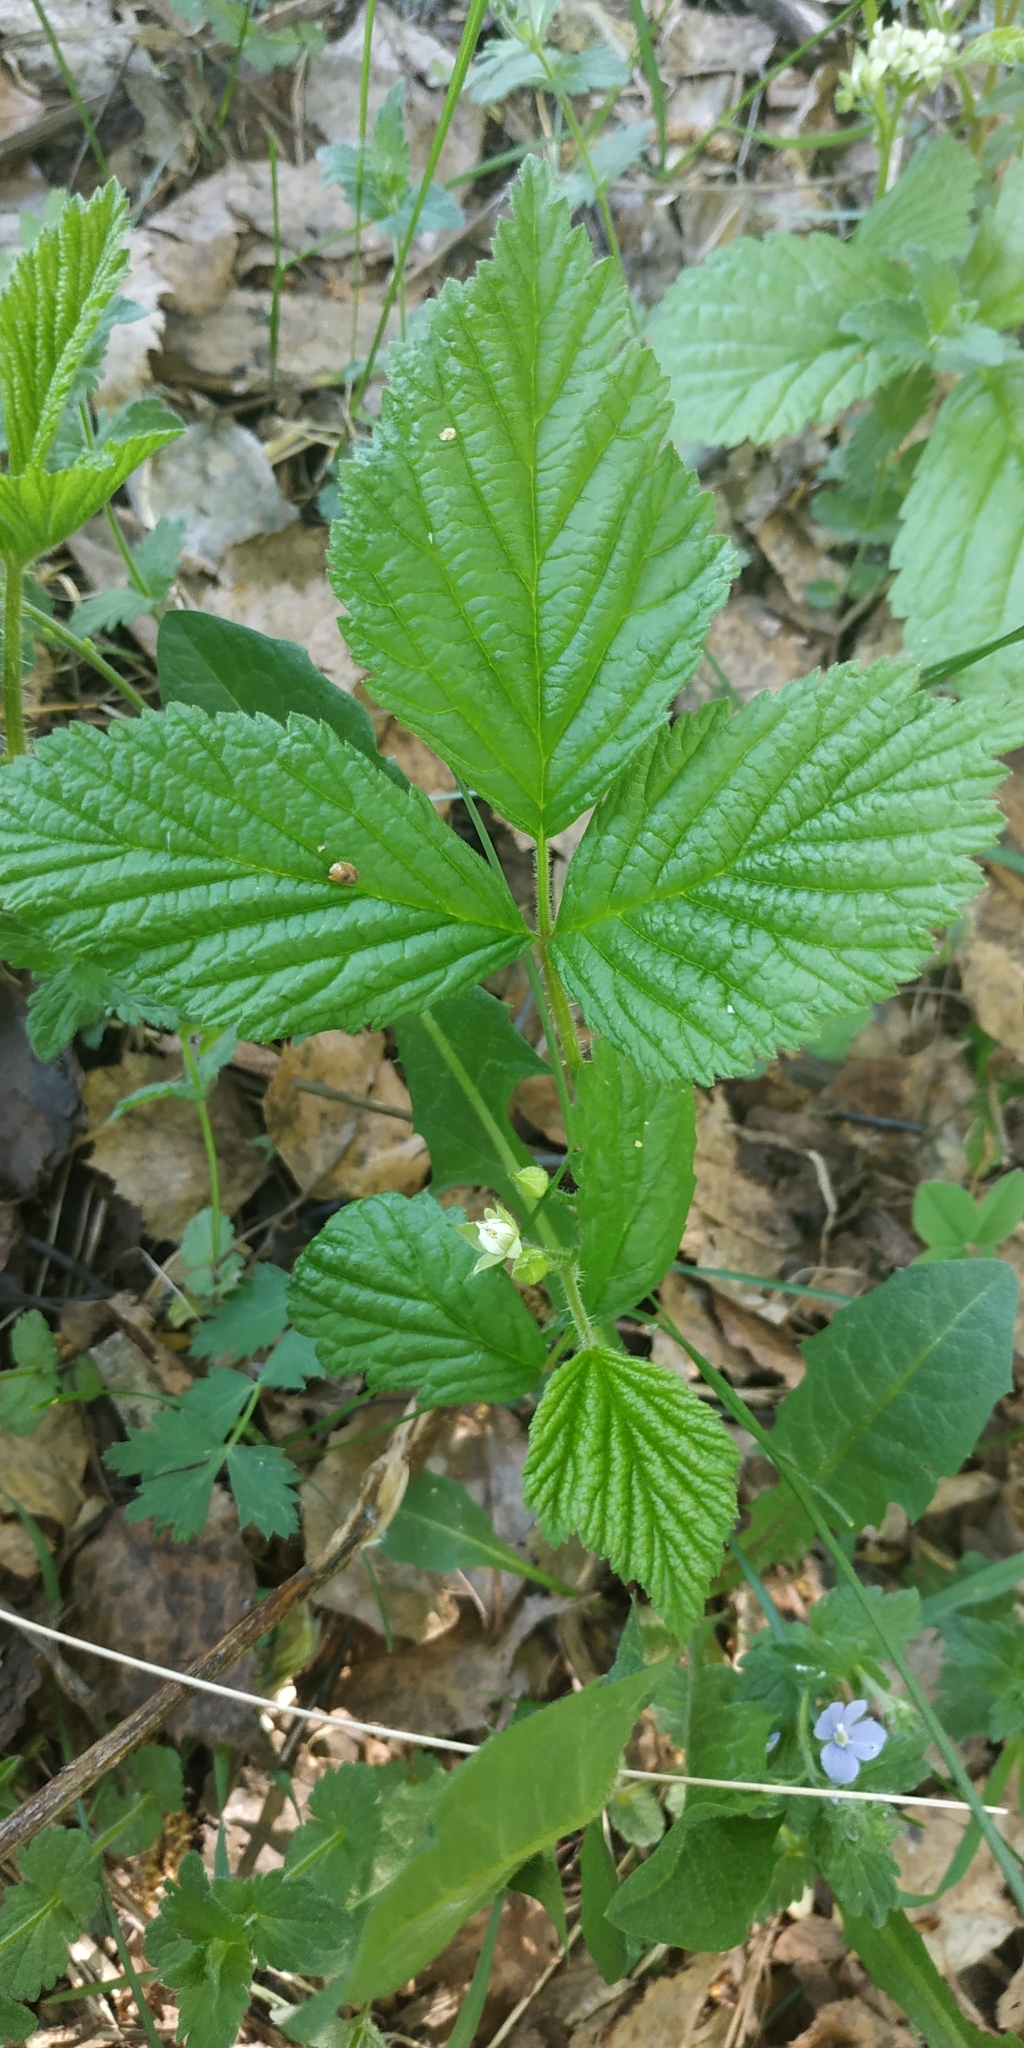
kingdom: Plantae
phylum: Tracheophyta
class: Magnoliopsida
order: Rosales
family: Rosaceae
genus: Rubus
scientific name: Rubus saxatilis
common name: Stone bramble
